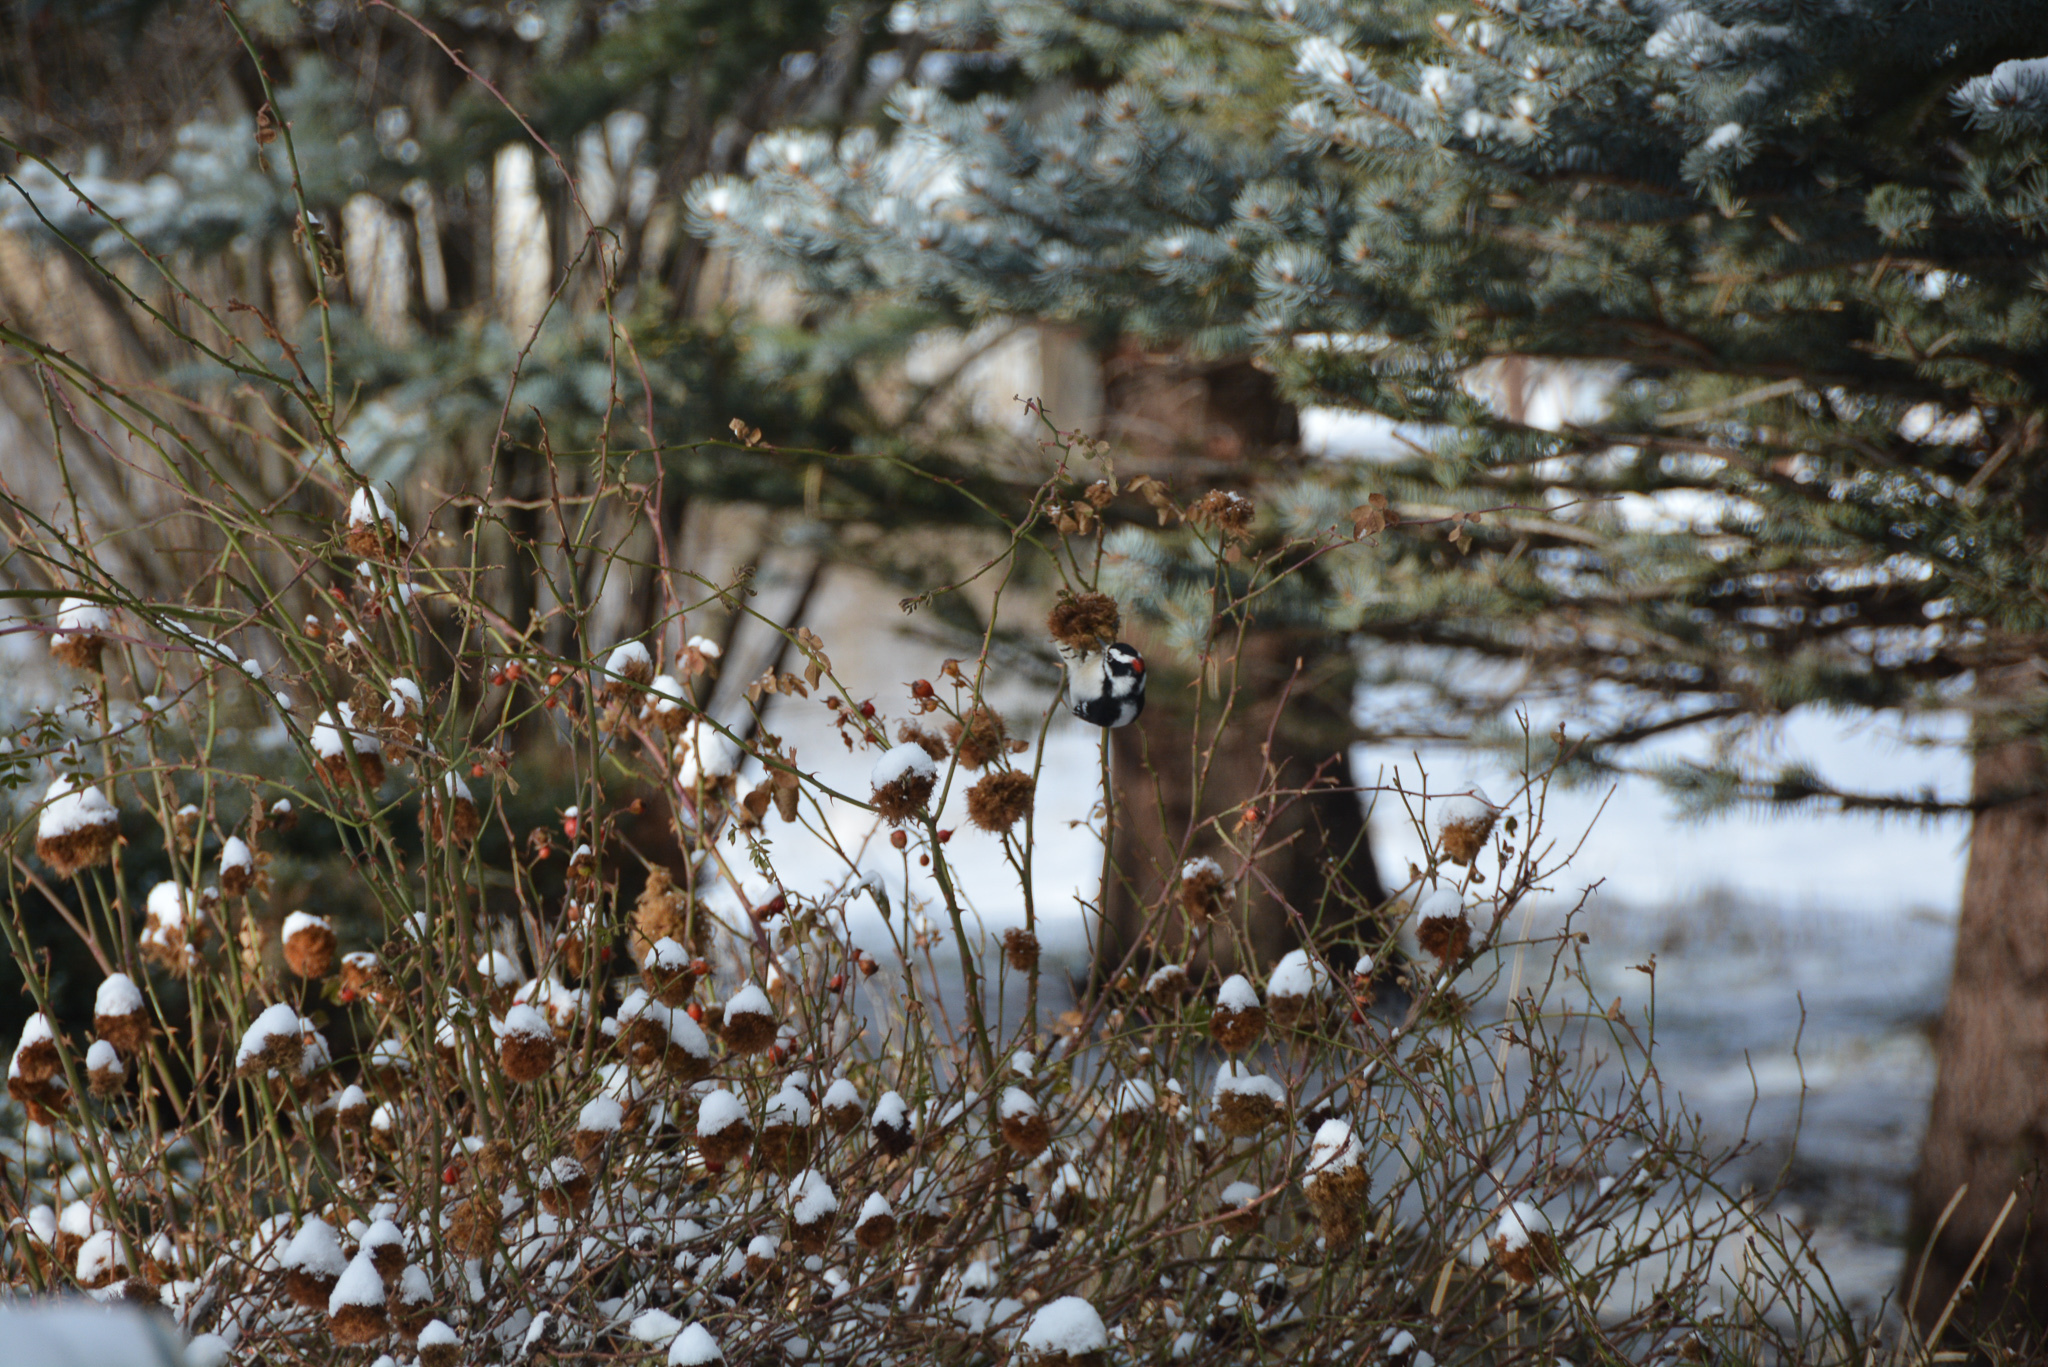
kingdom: Animalia
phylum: Chordata
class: Aves
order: Piciformes
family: Picidae
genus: Dryobates
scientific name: Dryobates pubescens
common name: Downy woodpecker
